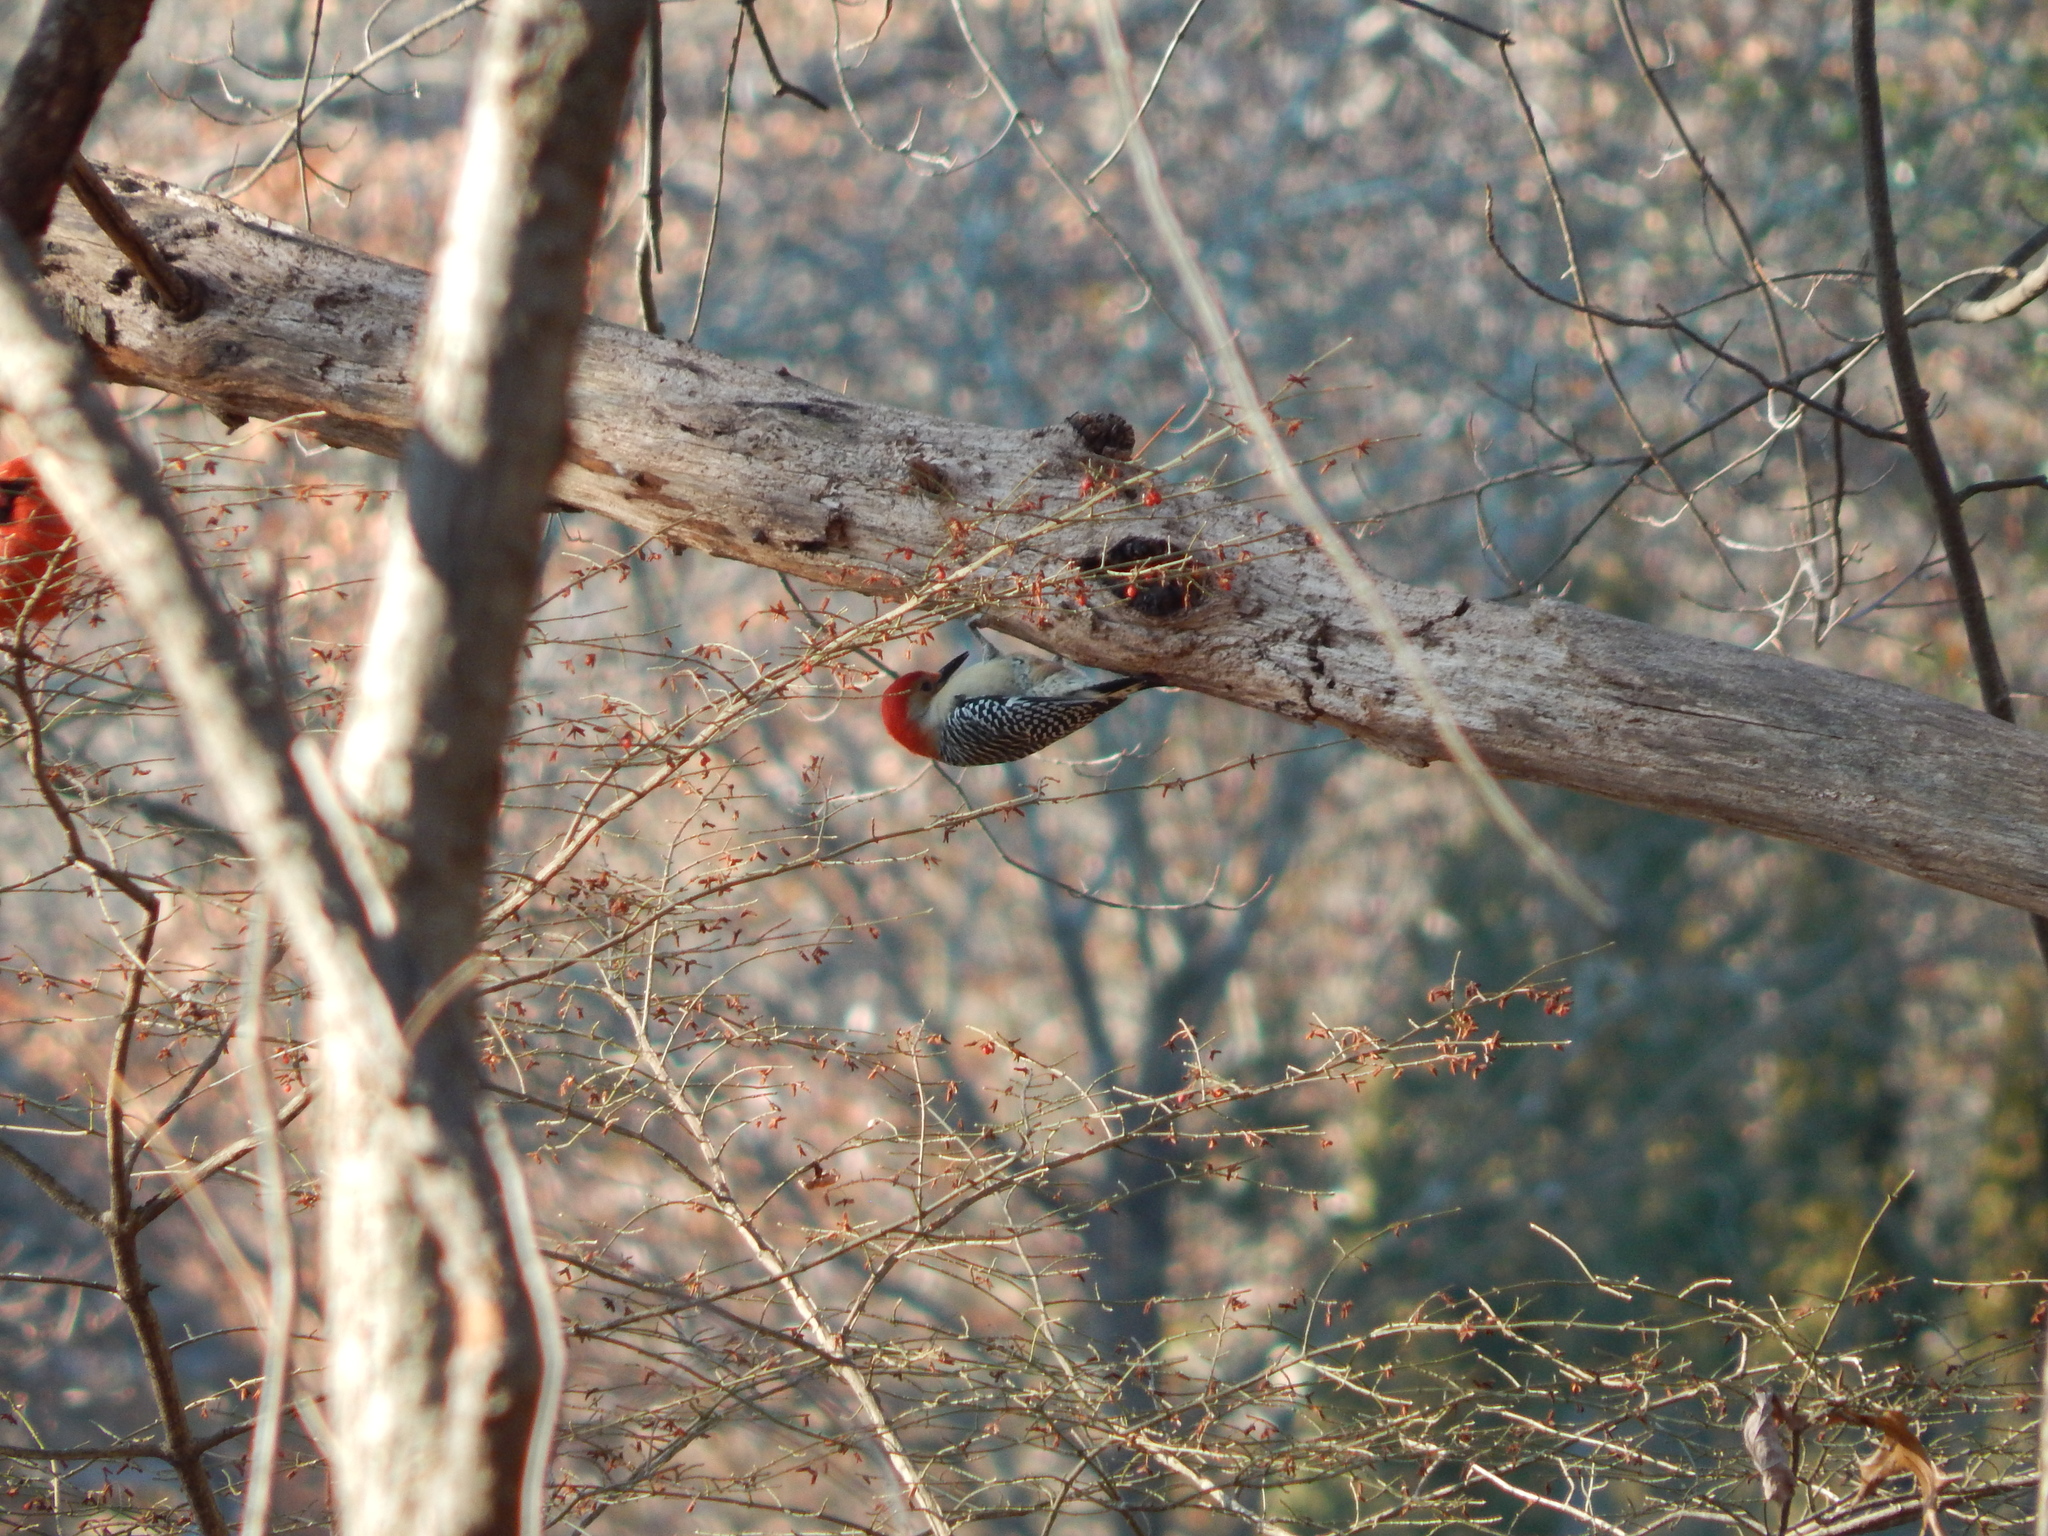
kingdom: Animalia
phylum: Chordata
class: Aves
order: Piciformes
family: Picidae
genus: Melanerpes
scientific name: Melanerpes carolinus
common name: Red-bellied woodpecker
